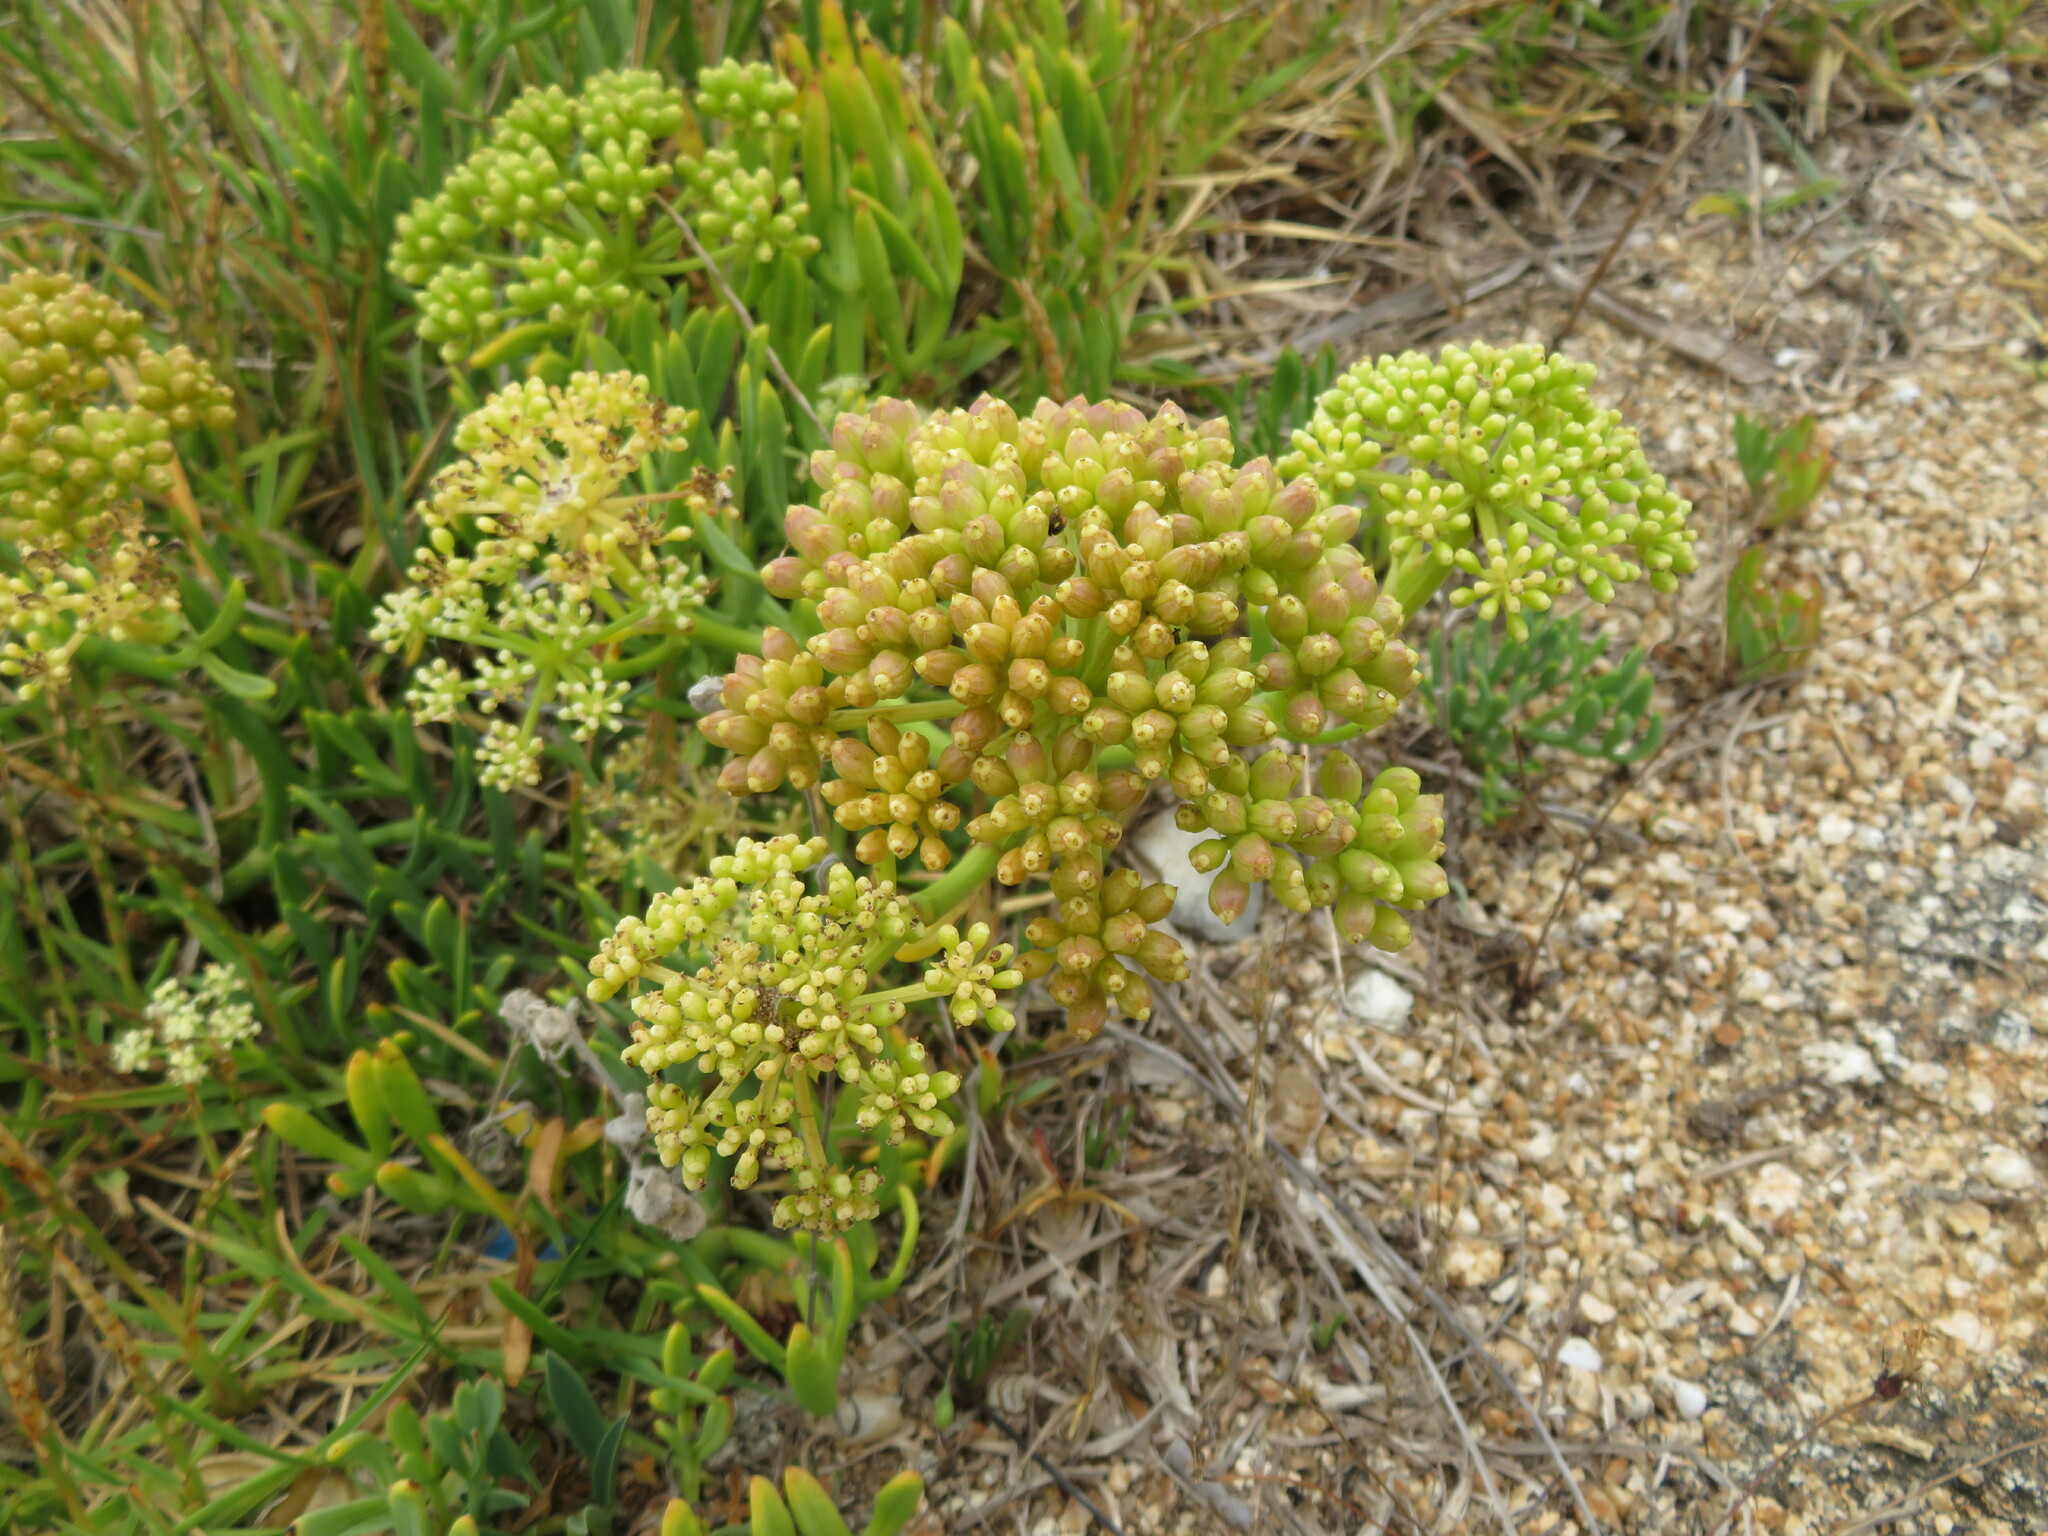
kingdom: Plantae
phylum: Tracheophyta
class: Magnoliopsida
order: Apiales
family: Apiaceae
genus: Crithmum
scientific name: Crithmum maritimum
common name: Rock samphire
